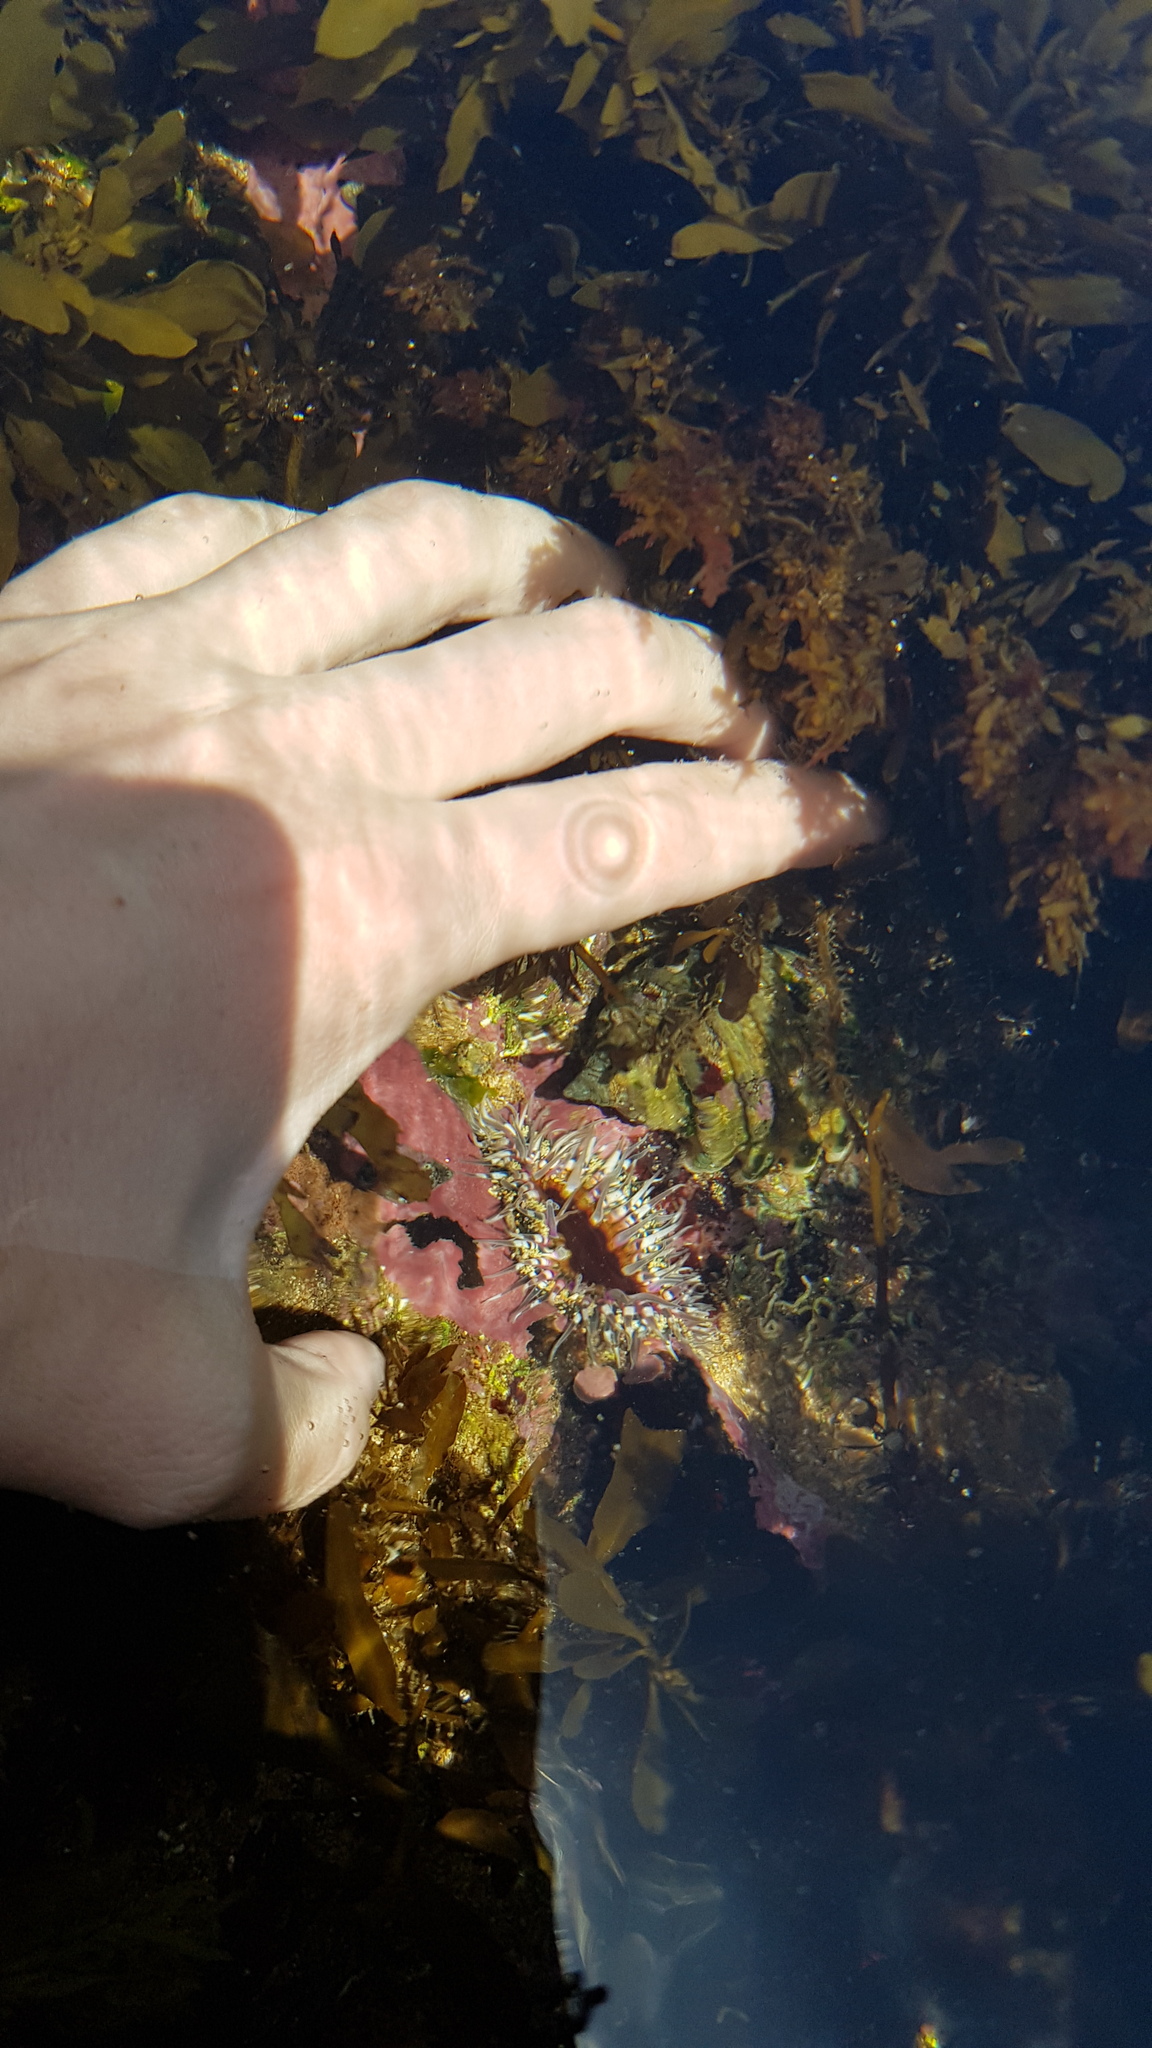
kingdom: Animalia
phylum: Cnidaria
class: Anthozoa
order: Actiniaria
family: Actiniidae
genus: Oulactis
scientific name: Oulactis muscosa
